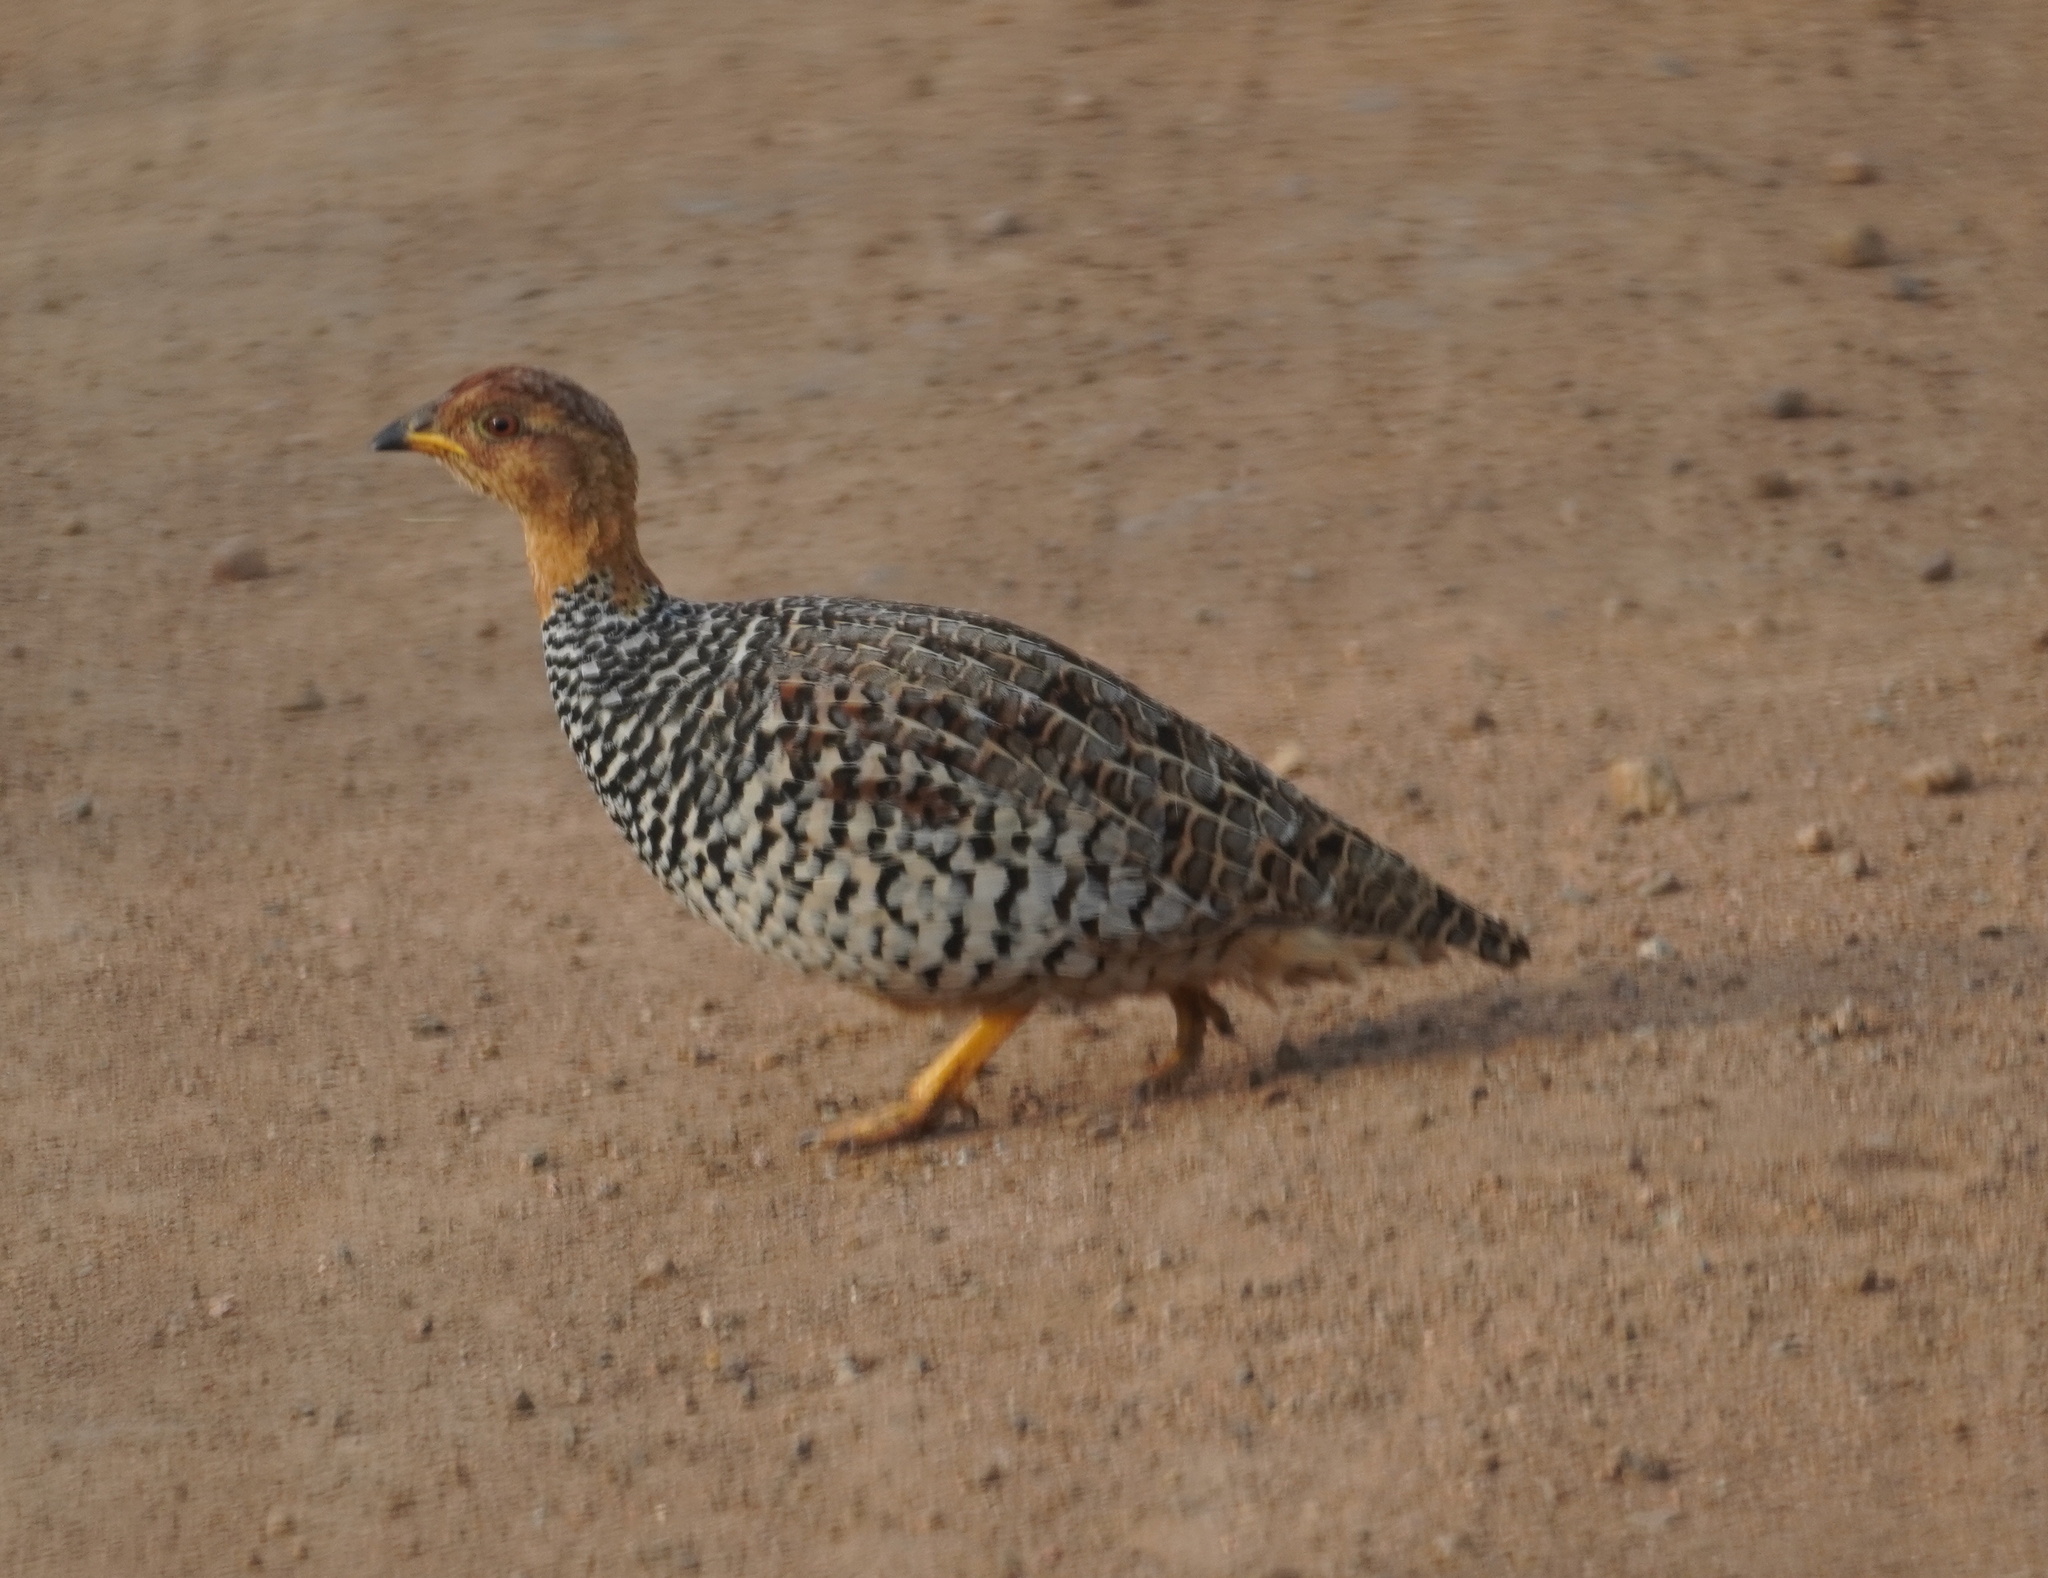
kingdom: Animalia
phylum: Chordata
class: Aves
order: Galliformes
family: Phasianidae
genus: Campocolinus
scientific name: Campocolinus coqui
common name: Coqui francolin
